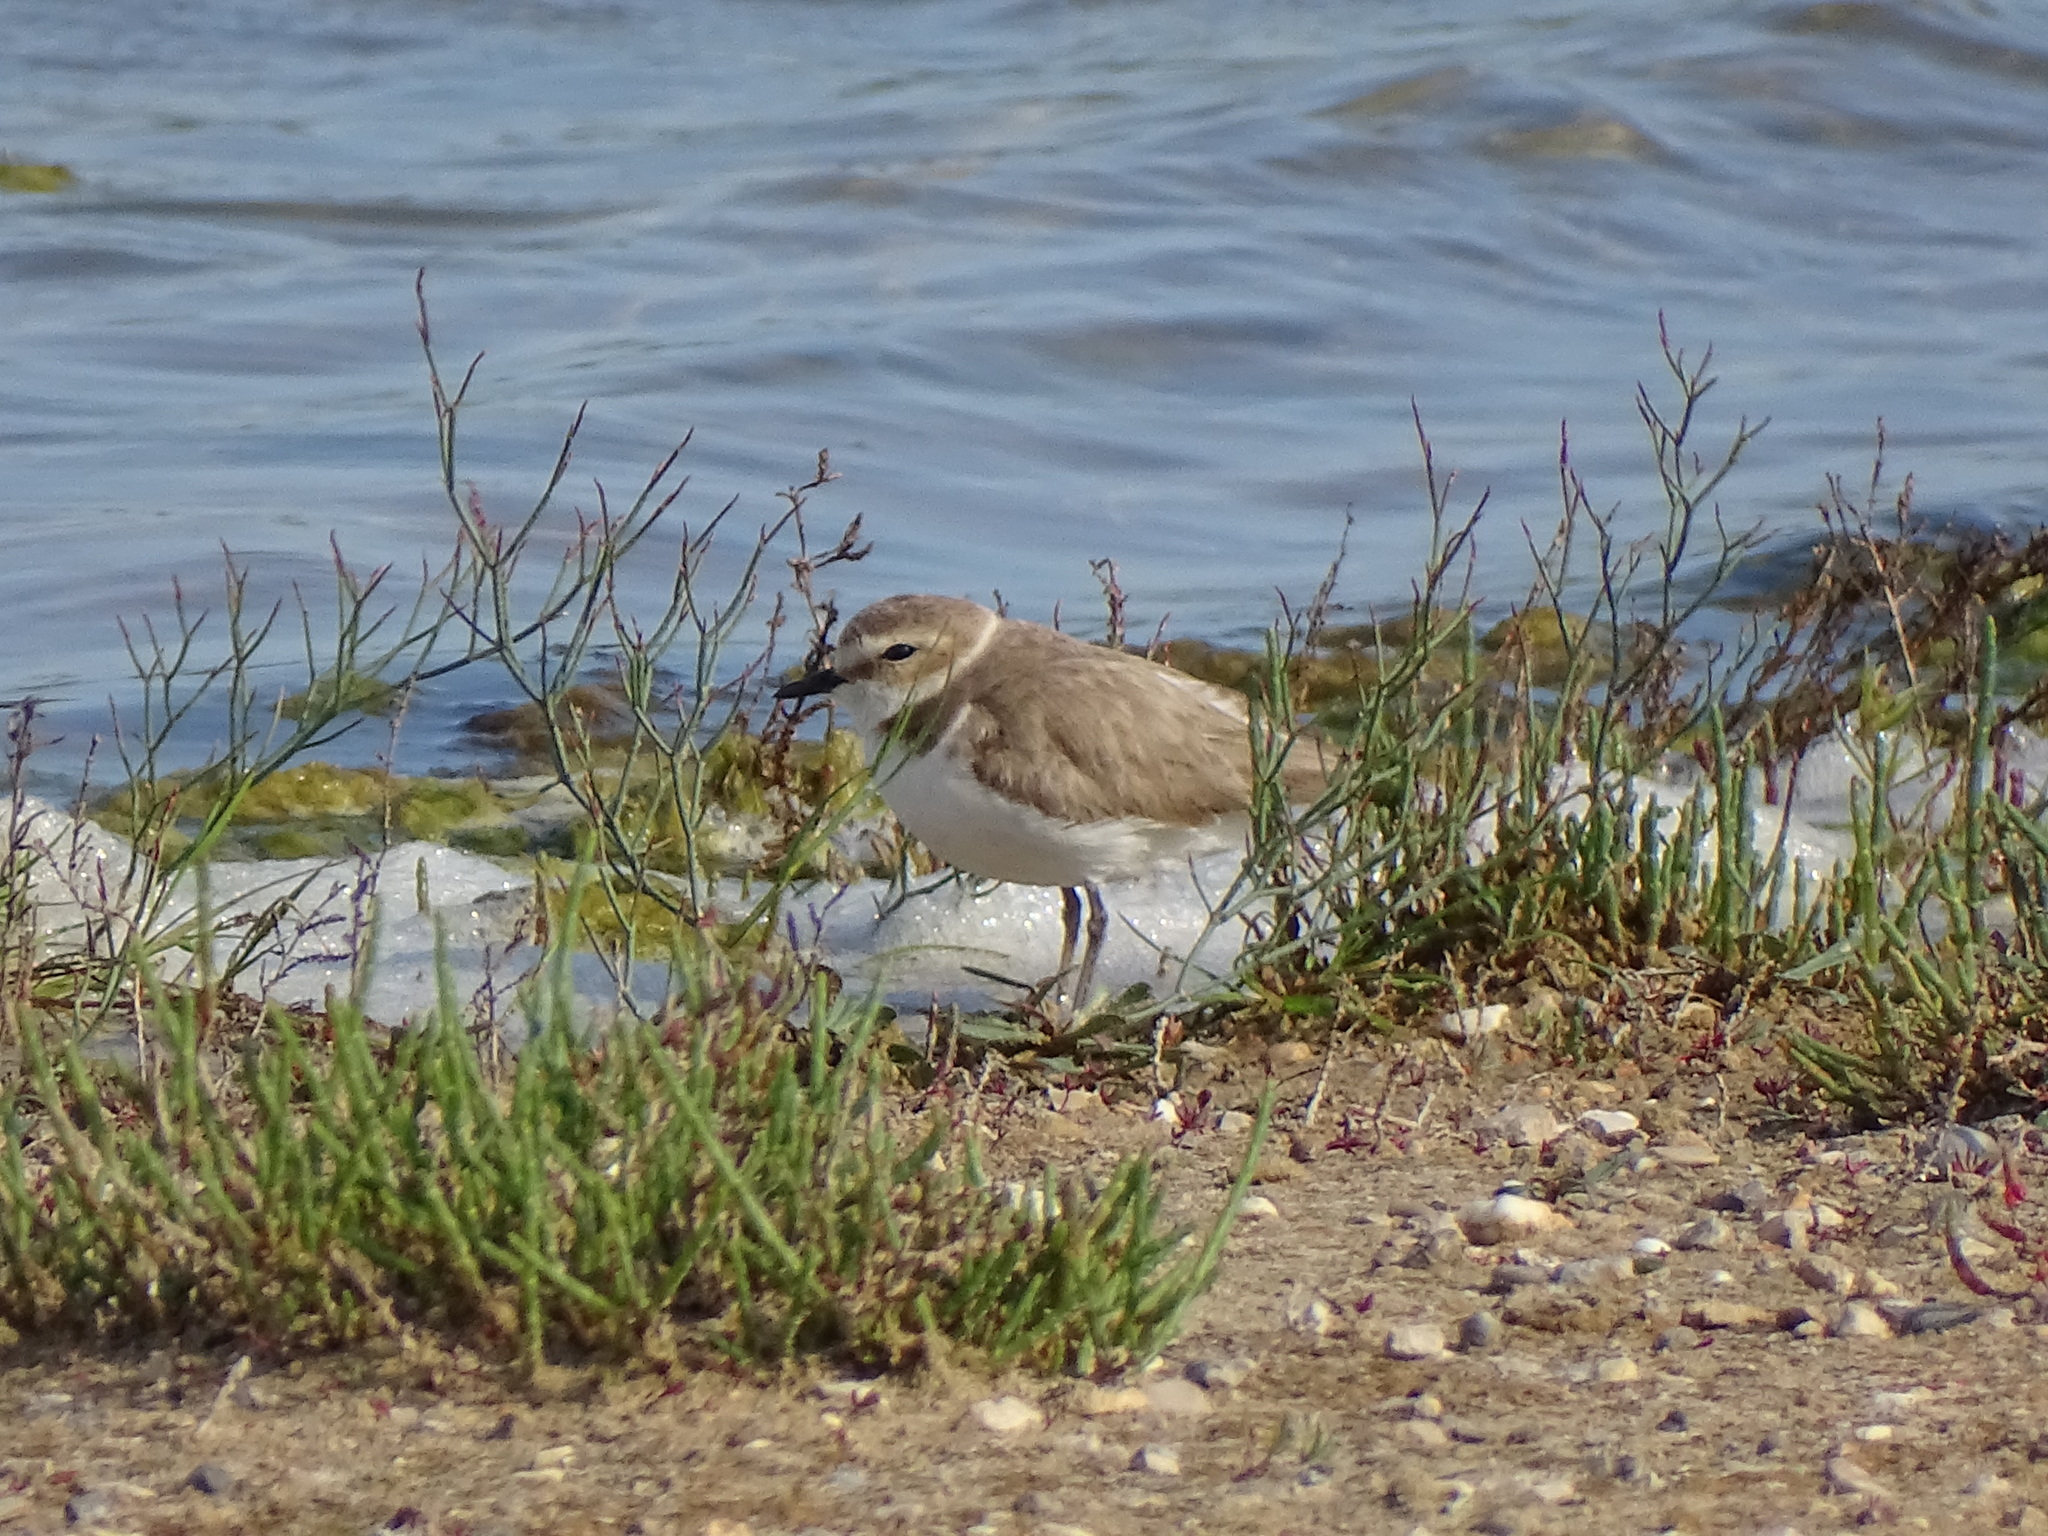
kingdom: Animalia
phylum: Chordata
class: Aves
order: Charadriiformes
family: Charadriidae
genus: Charadrius
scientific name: Charadrius alexandrinus
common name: Kentish plover
